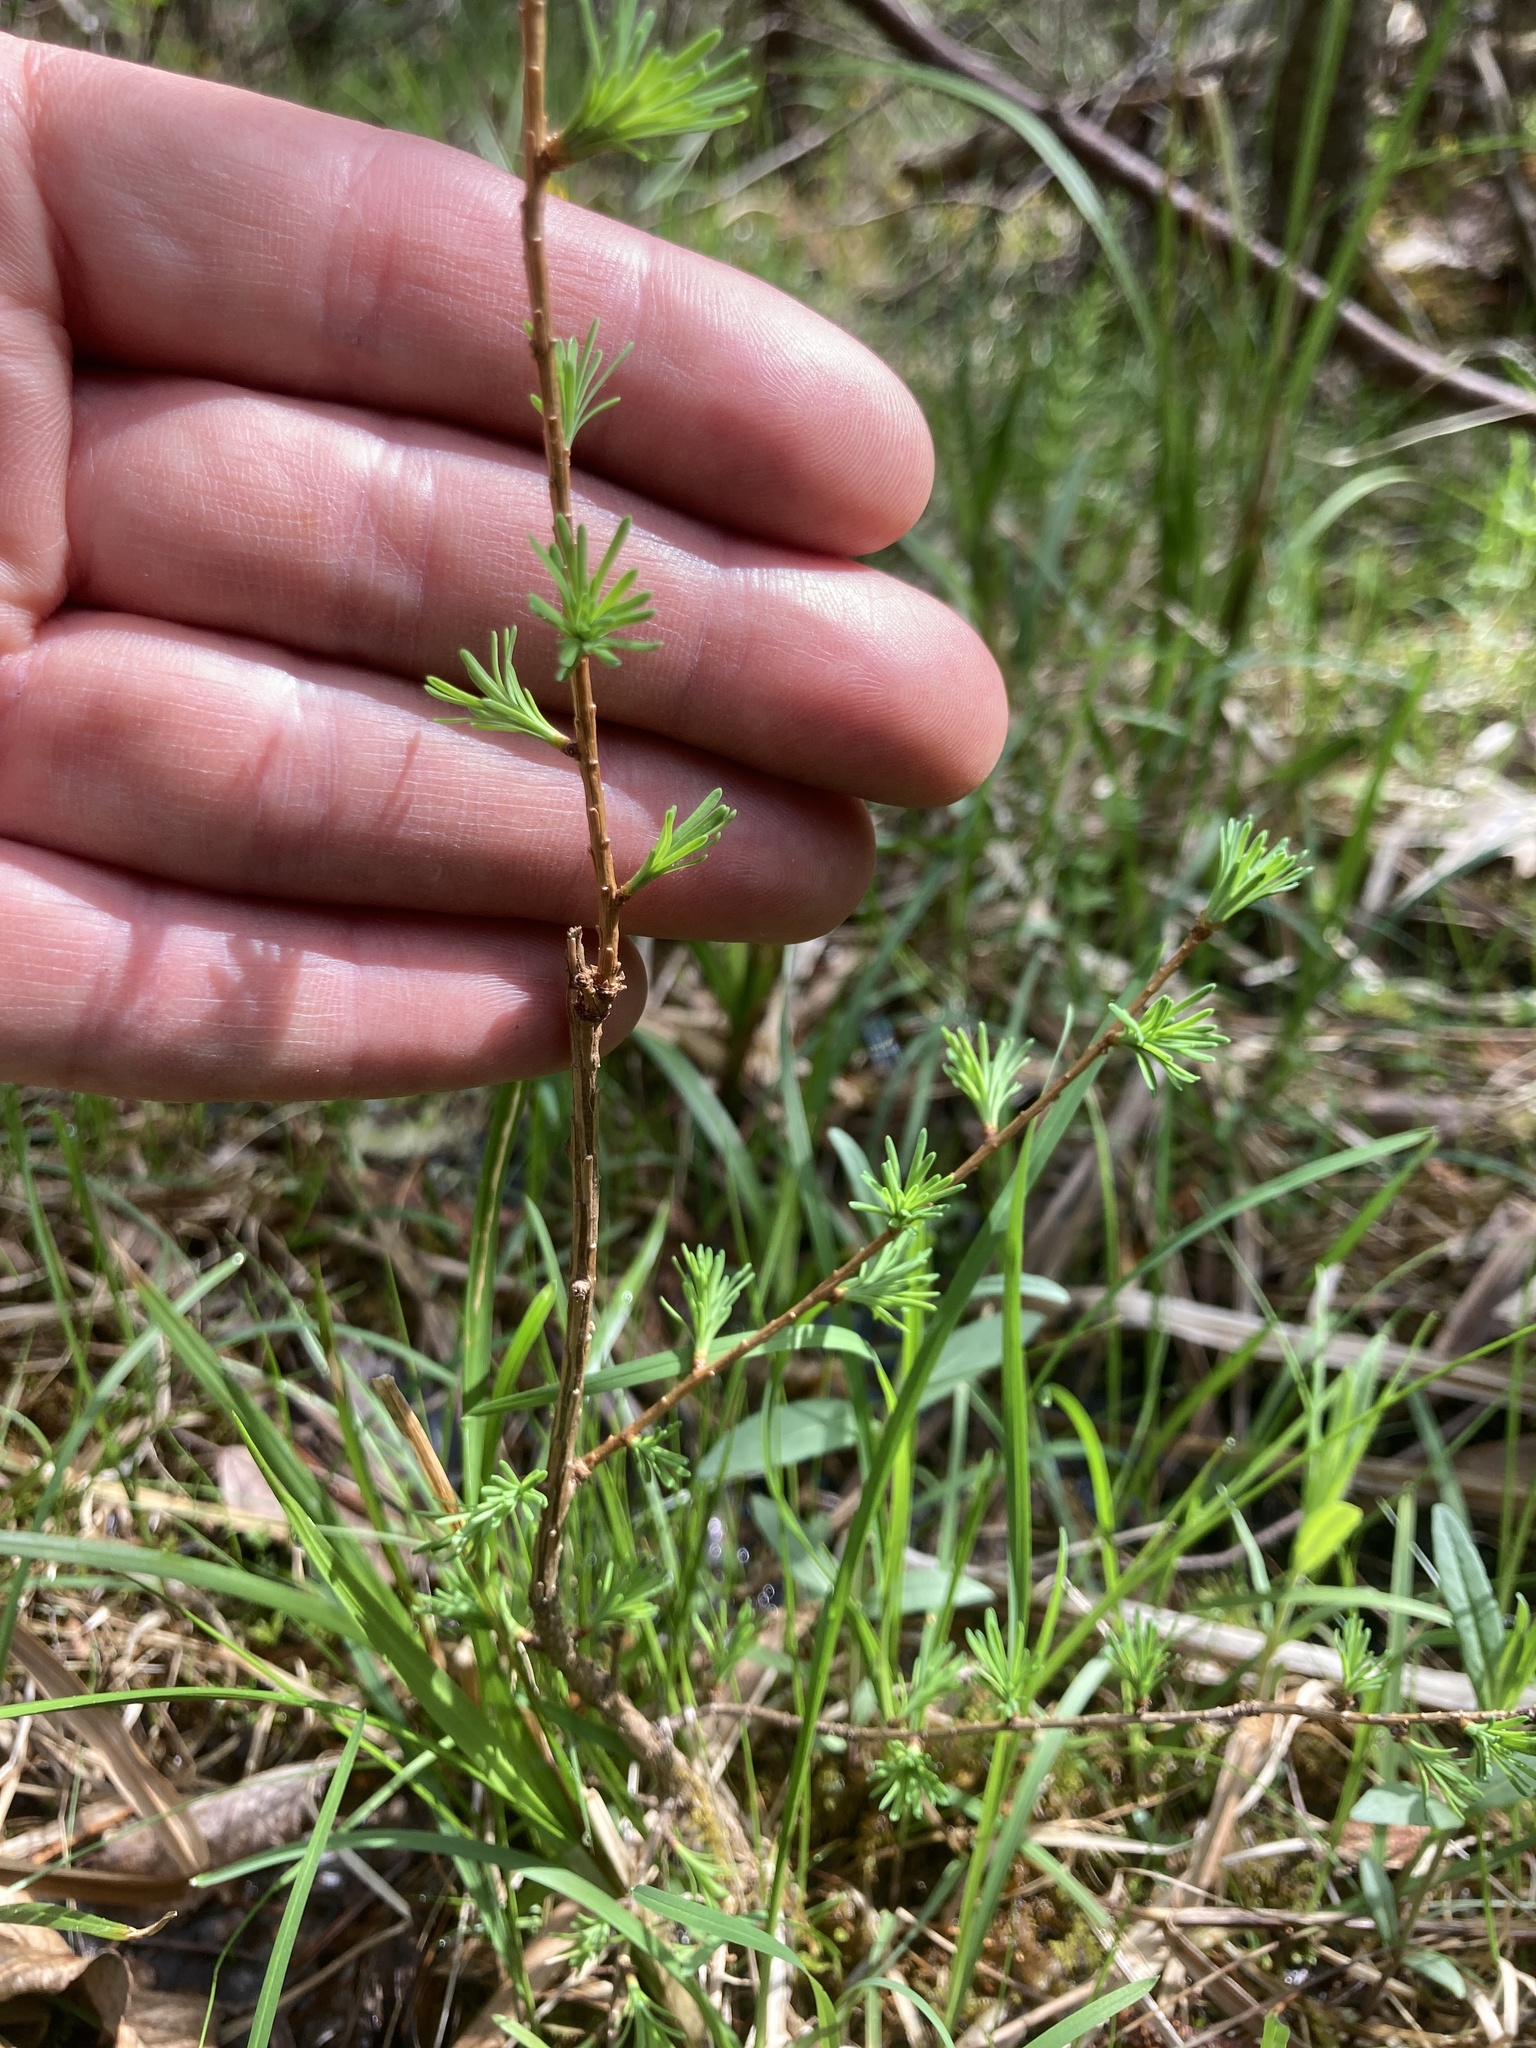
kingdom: Plantae
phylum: Tracheophyta
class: Pinopsida
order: Pinales
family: Pinaceae
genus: Larix
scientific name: Larix laricina
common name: American larch
